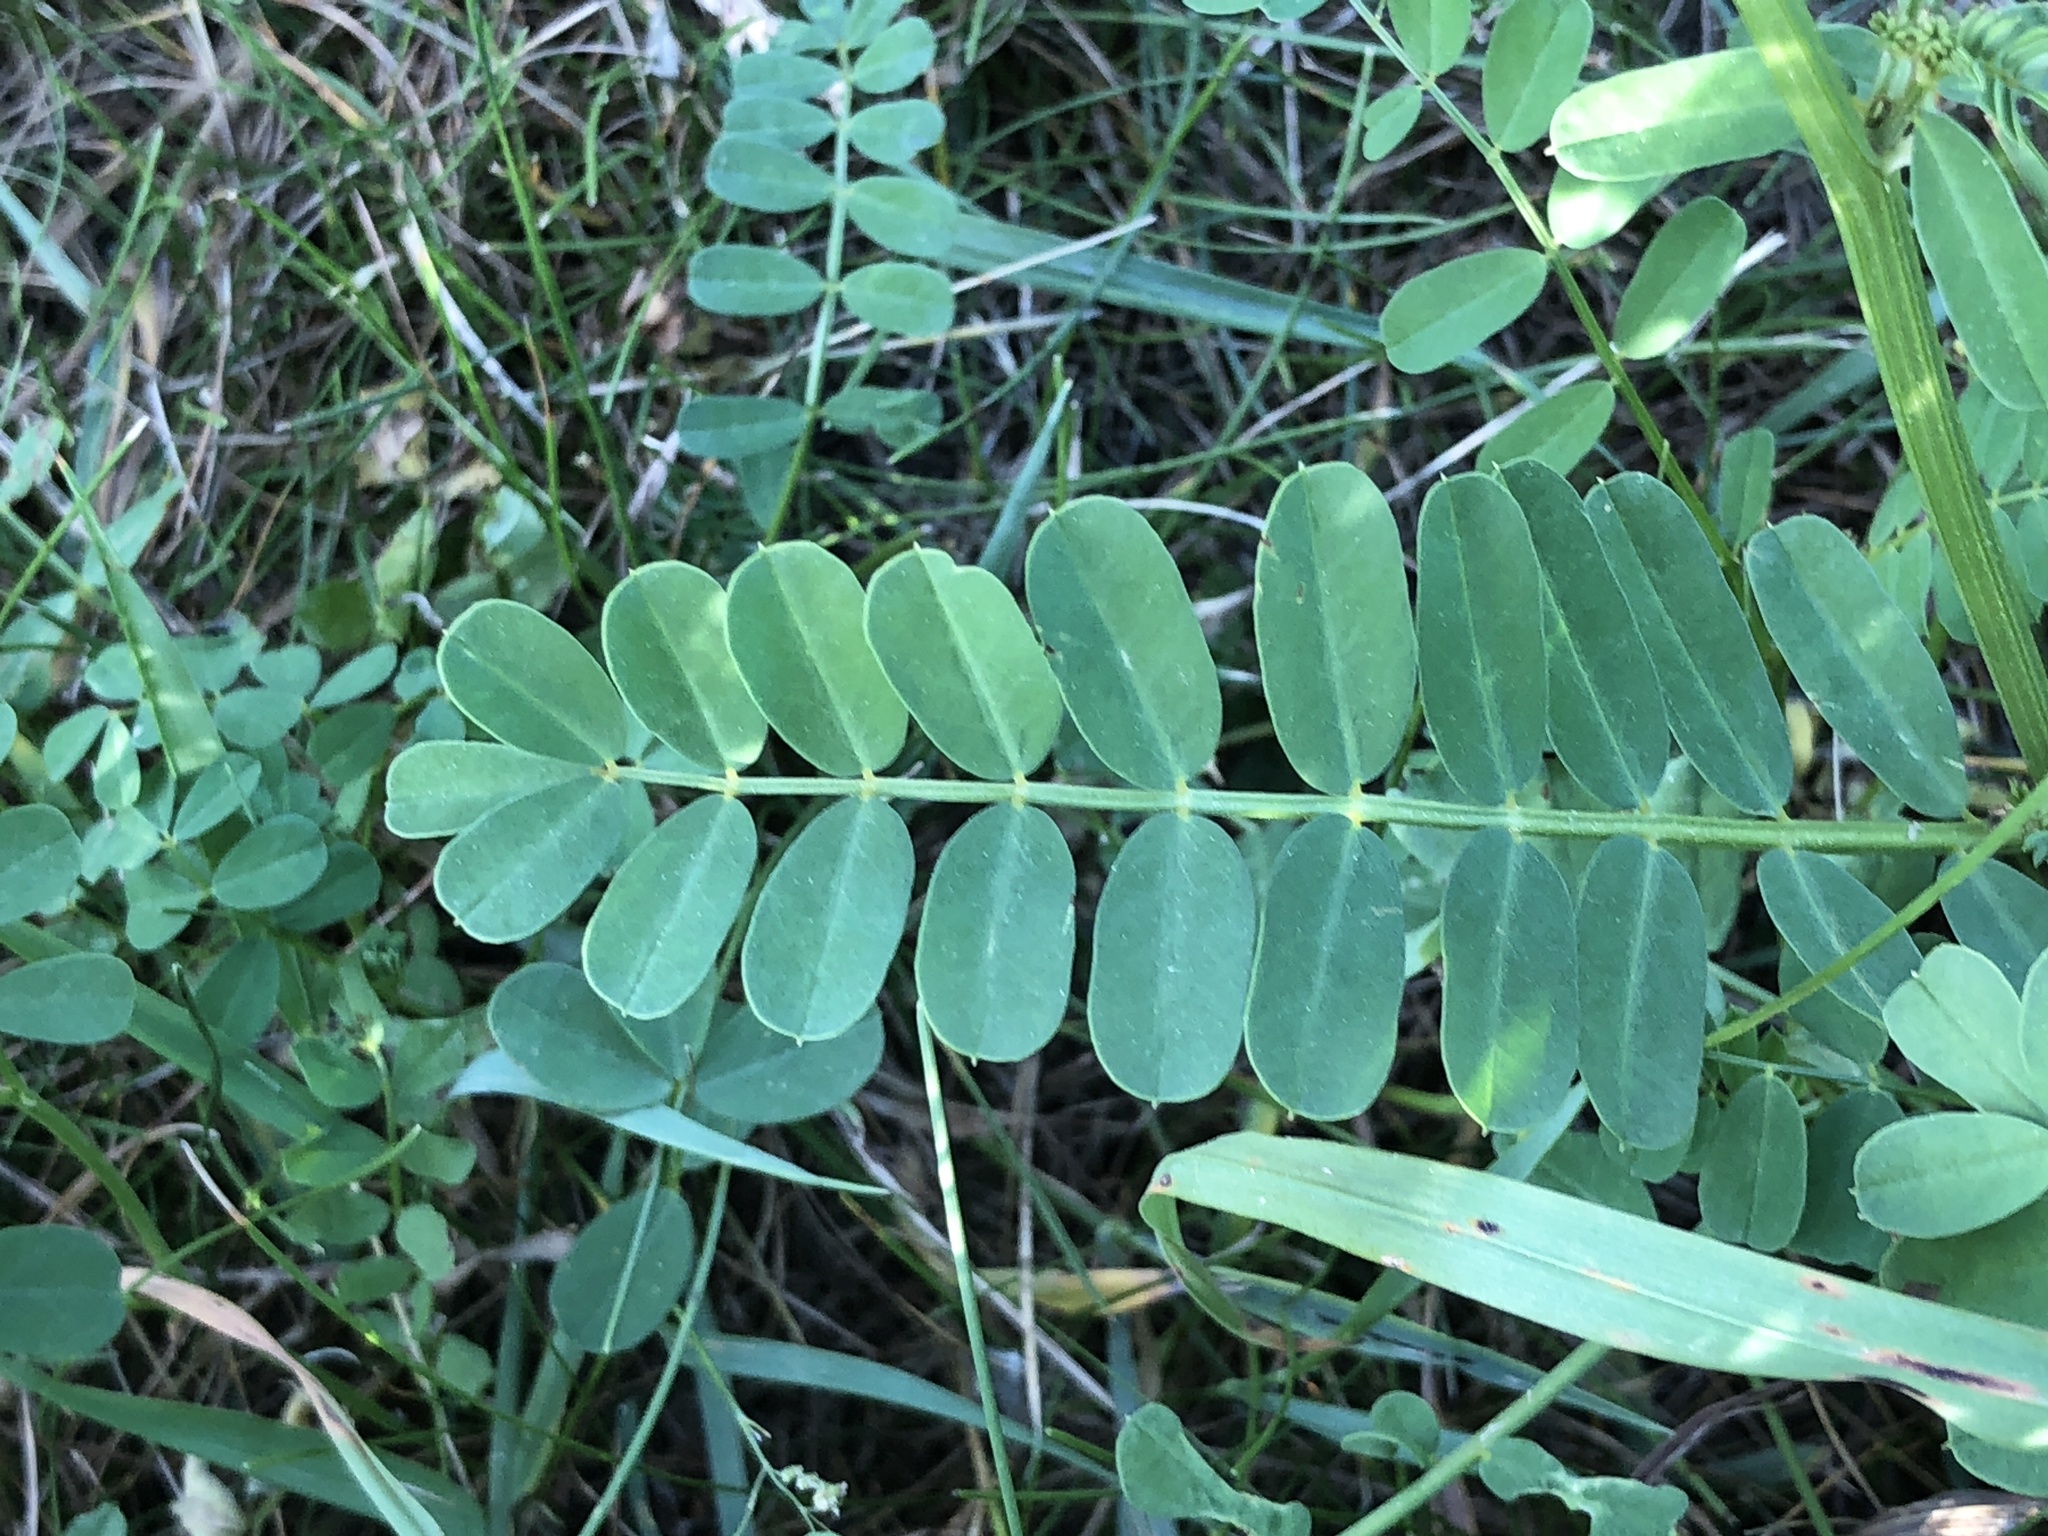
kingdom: Plantae
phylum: Tracheophyta
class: Magnoliopsida
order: Fabales
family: Fabaceae
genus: Coronilla
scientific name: Coronilla varia
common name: Crownvetch
